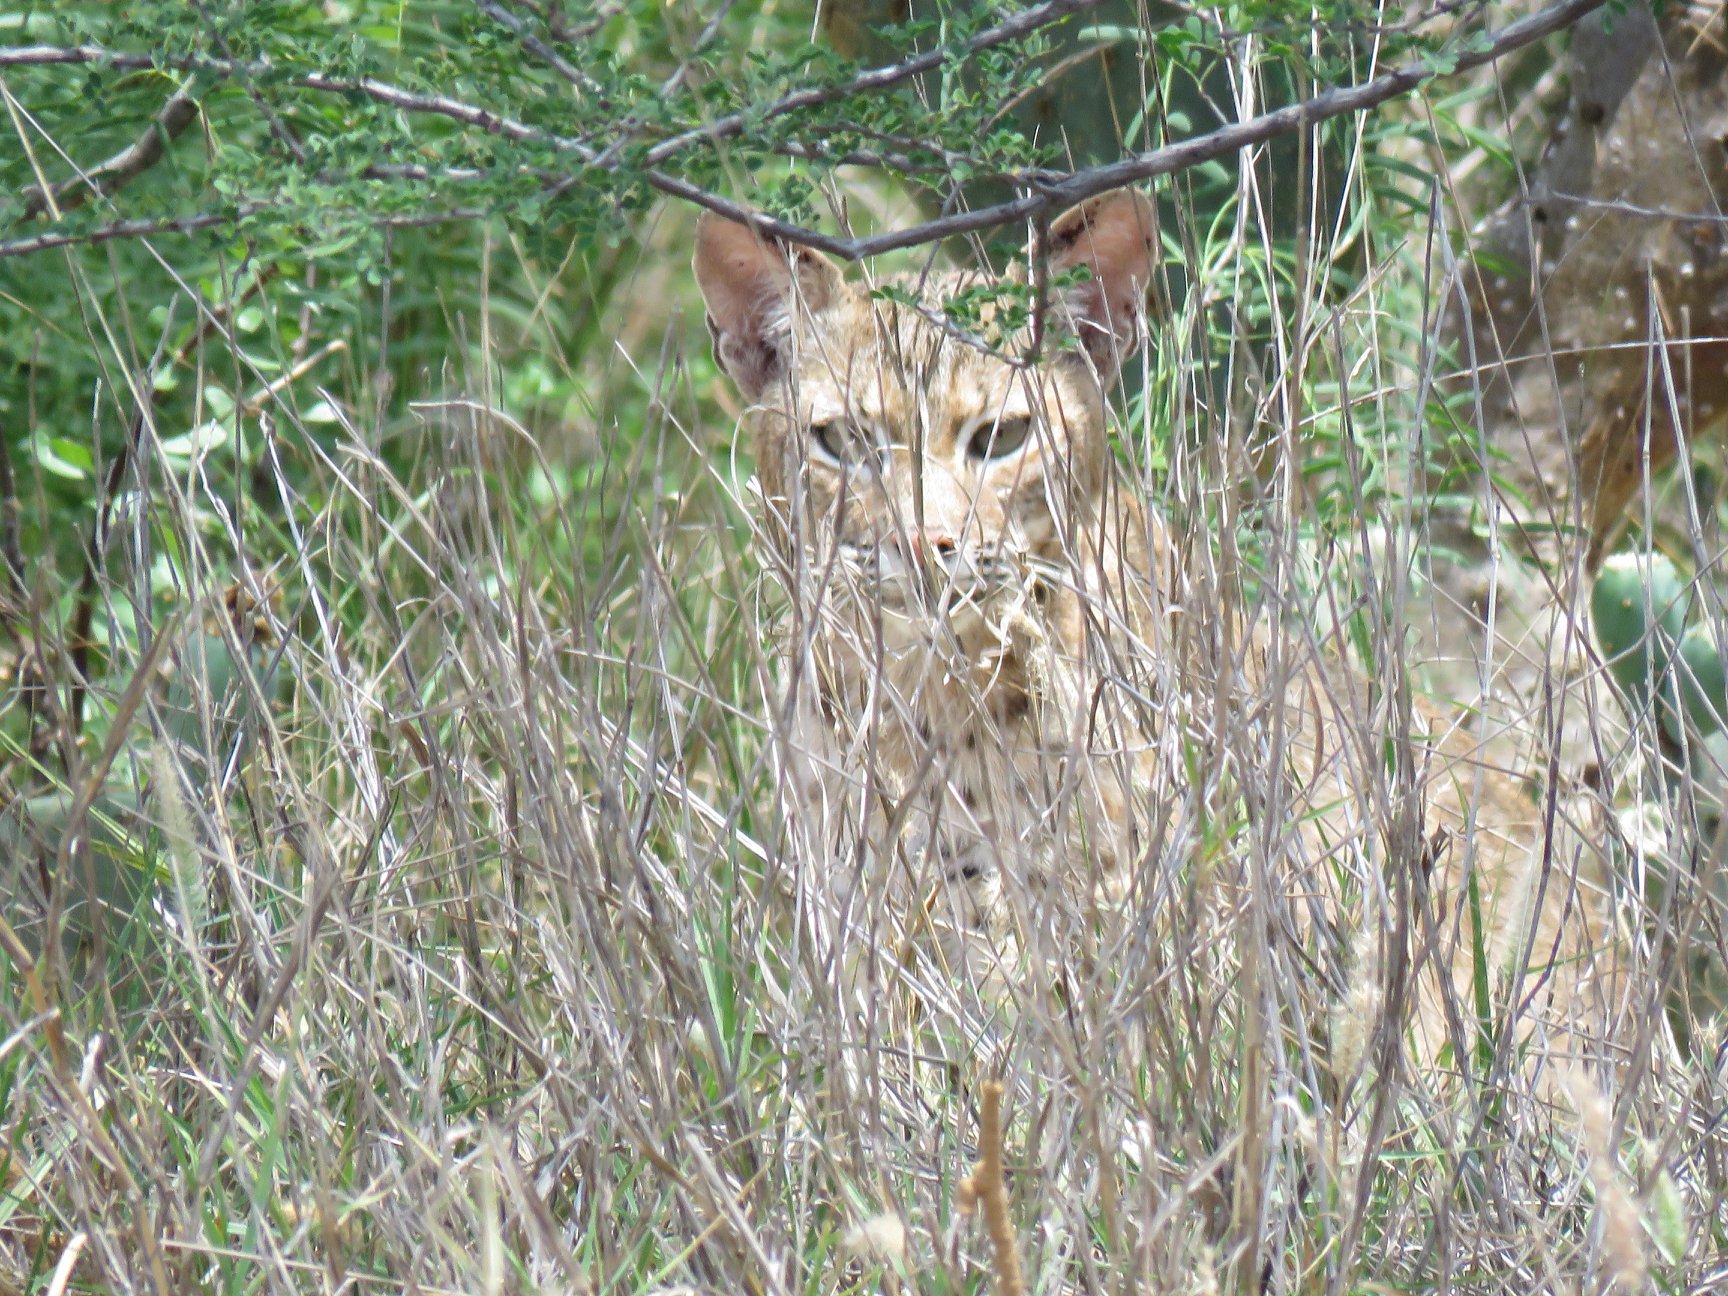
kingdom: Animalia
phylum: Chordata
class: Mammalia
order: Carnivora
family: Felidae
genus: Lynx
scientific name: Lynx rufus
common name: Bobcat
